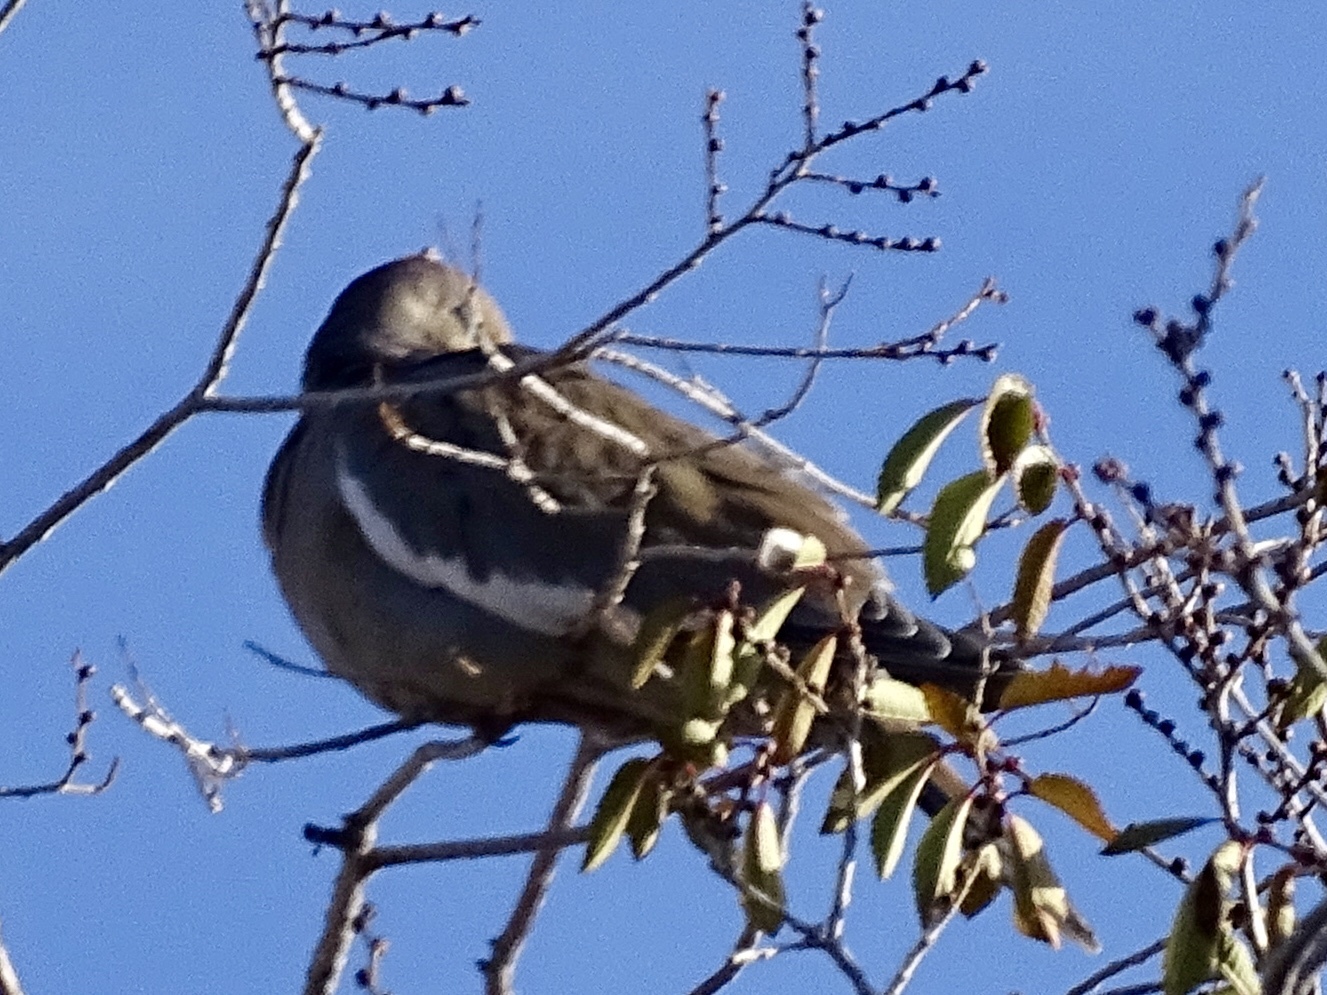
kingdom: Animalia
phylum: Chordata
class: Aves
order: Columbiformes
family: Columbidae
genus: Zenaida
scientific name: Zenaida asiatica
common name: White-winged dove
